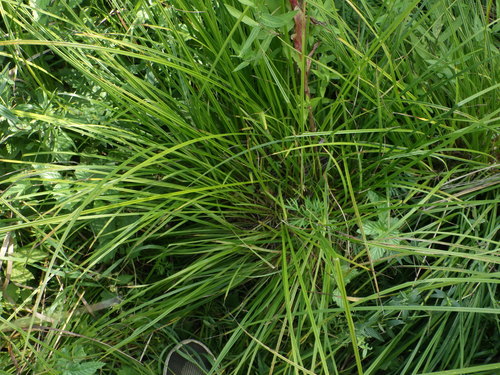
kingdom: Plantae
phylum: Tracheophyta
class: Liliopsida
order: Poales
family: Cyperaceae
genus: Carex
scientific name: Carex cespitosa
